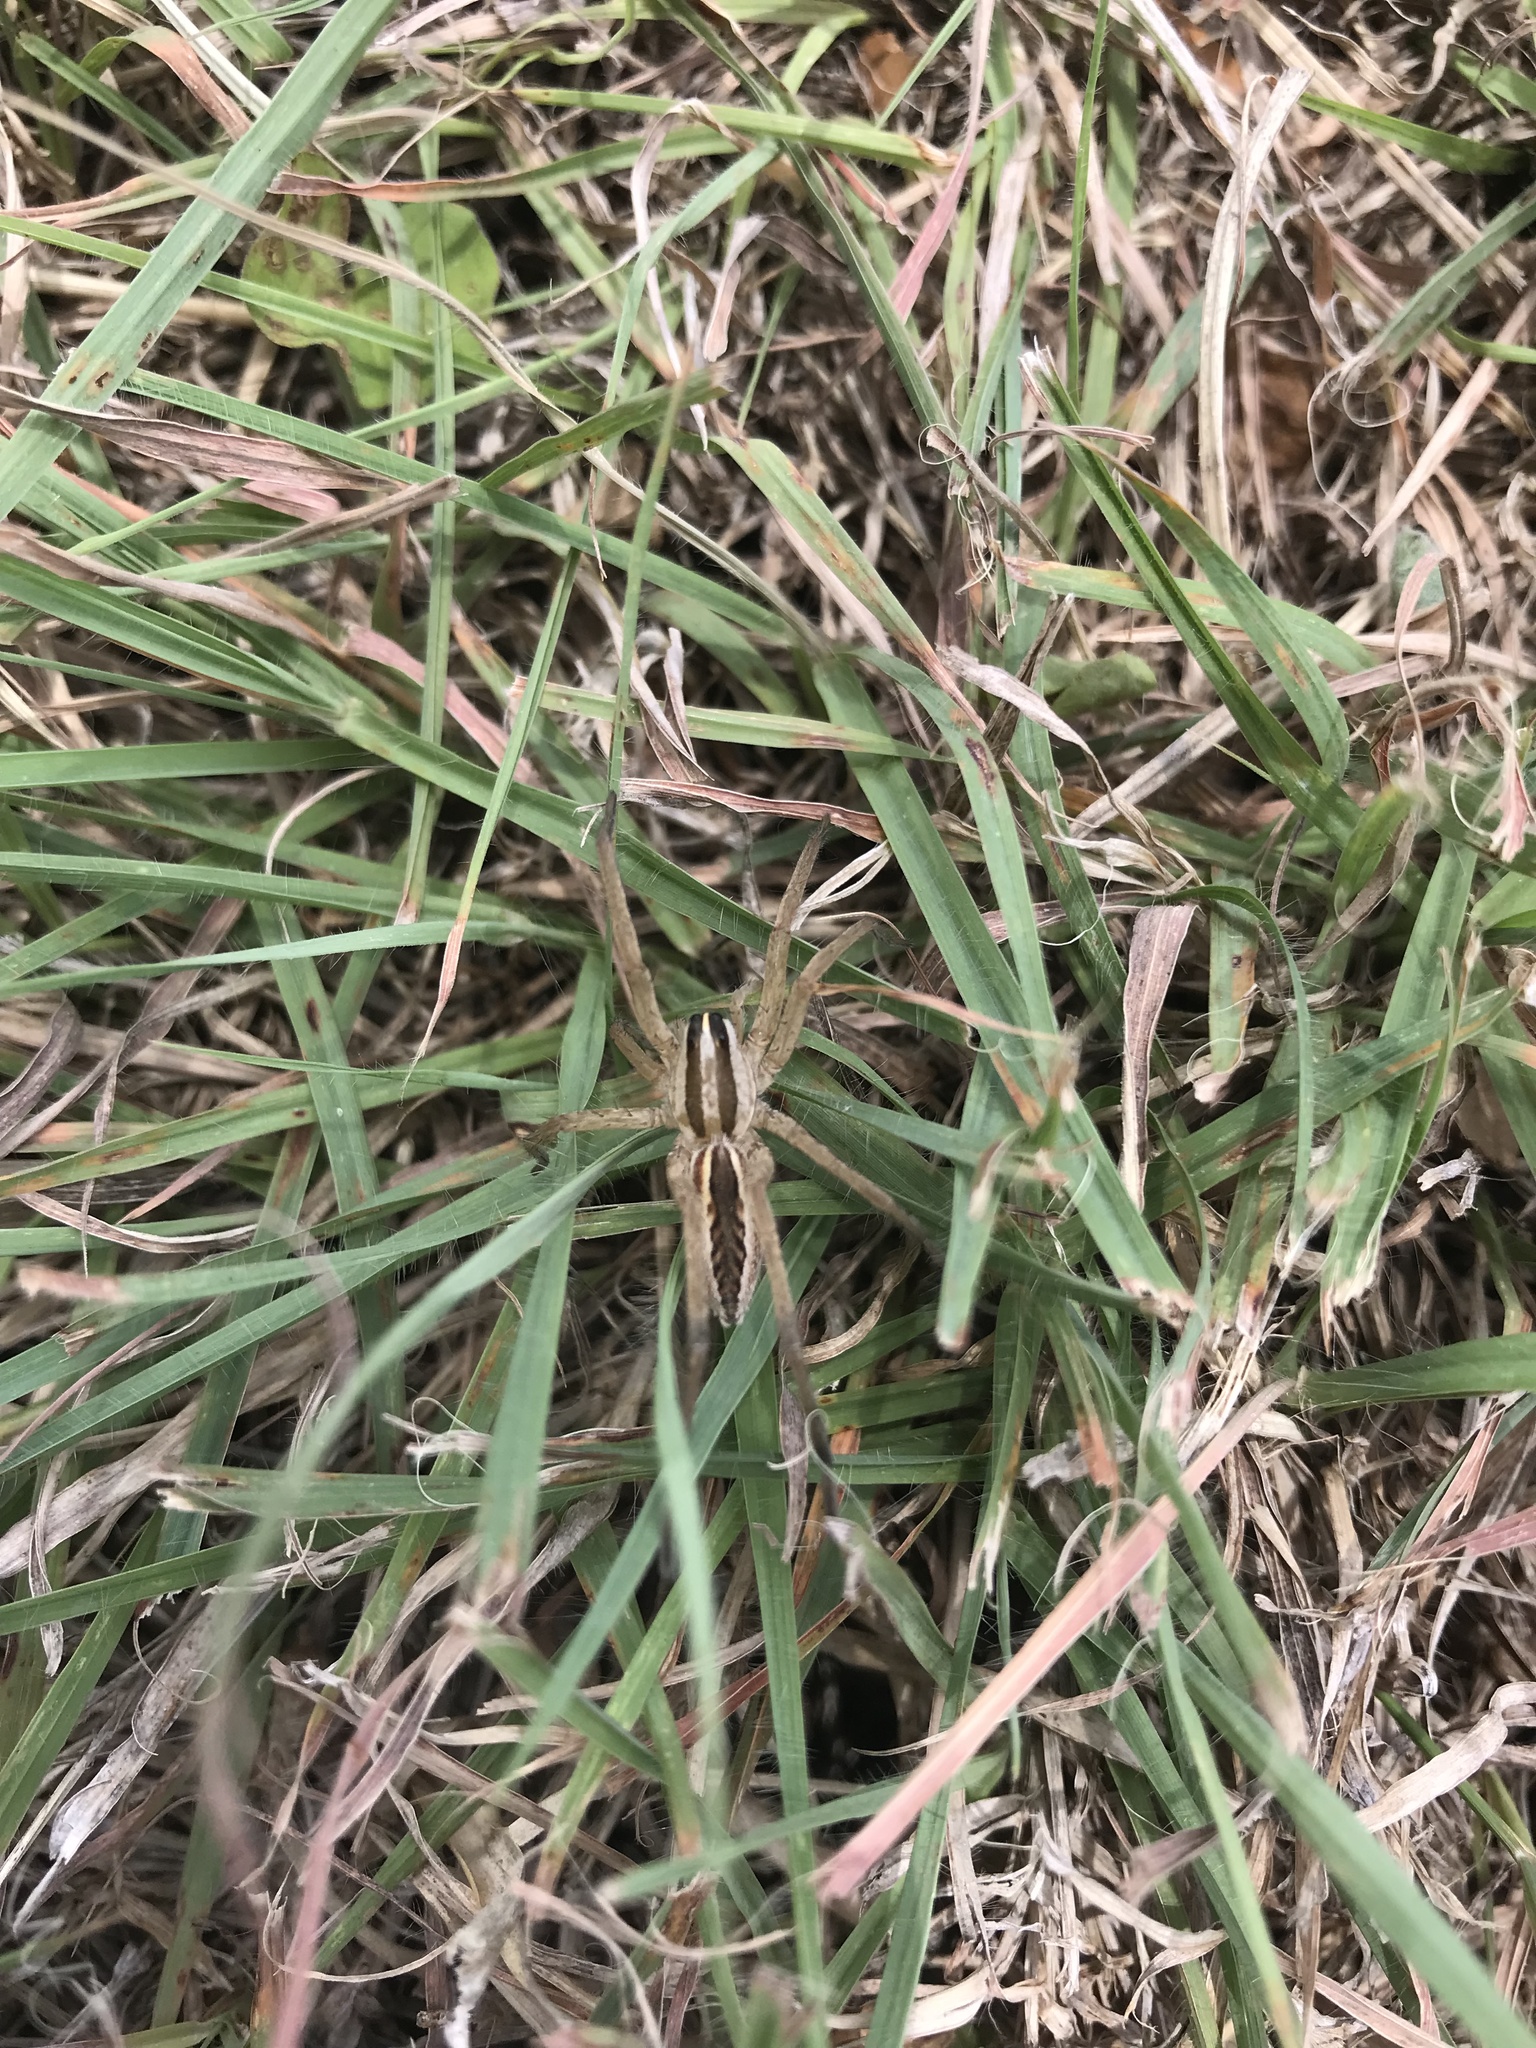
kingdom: Animalia
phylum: Arthropoda
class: Arachnida
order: Araneae
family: Lycosidae
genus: Rabidosa
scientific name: Rabidosa rabida
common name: Rabid wolf spider
